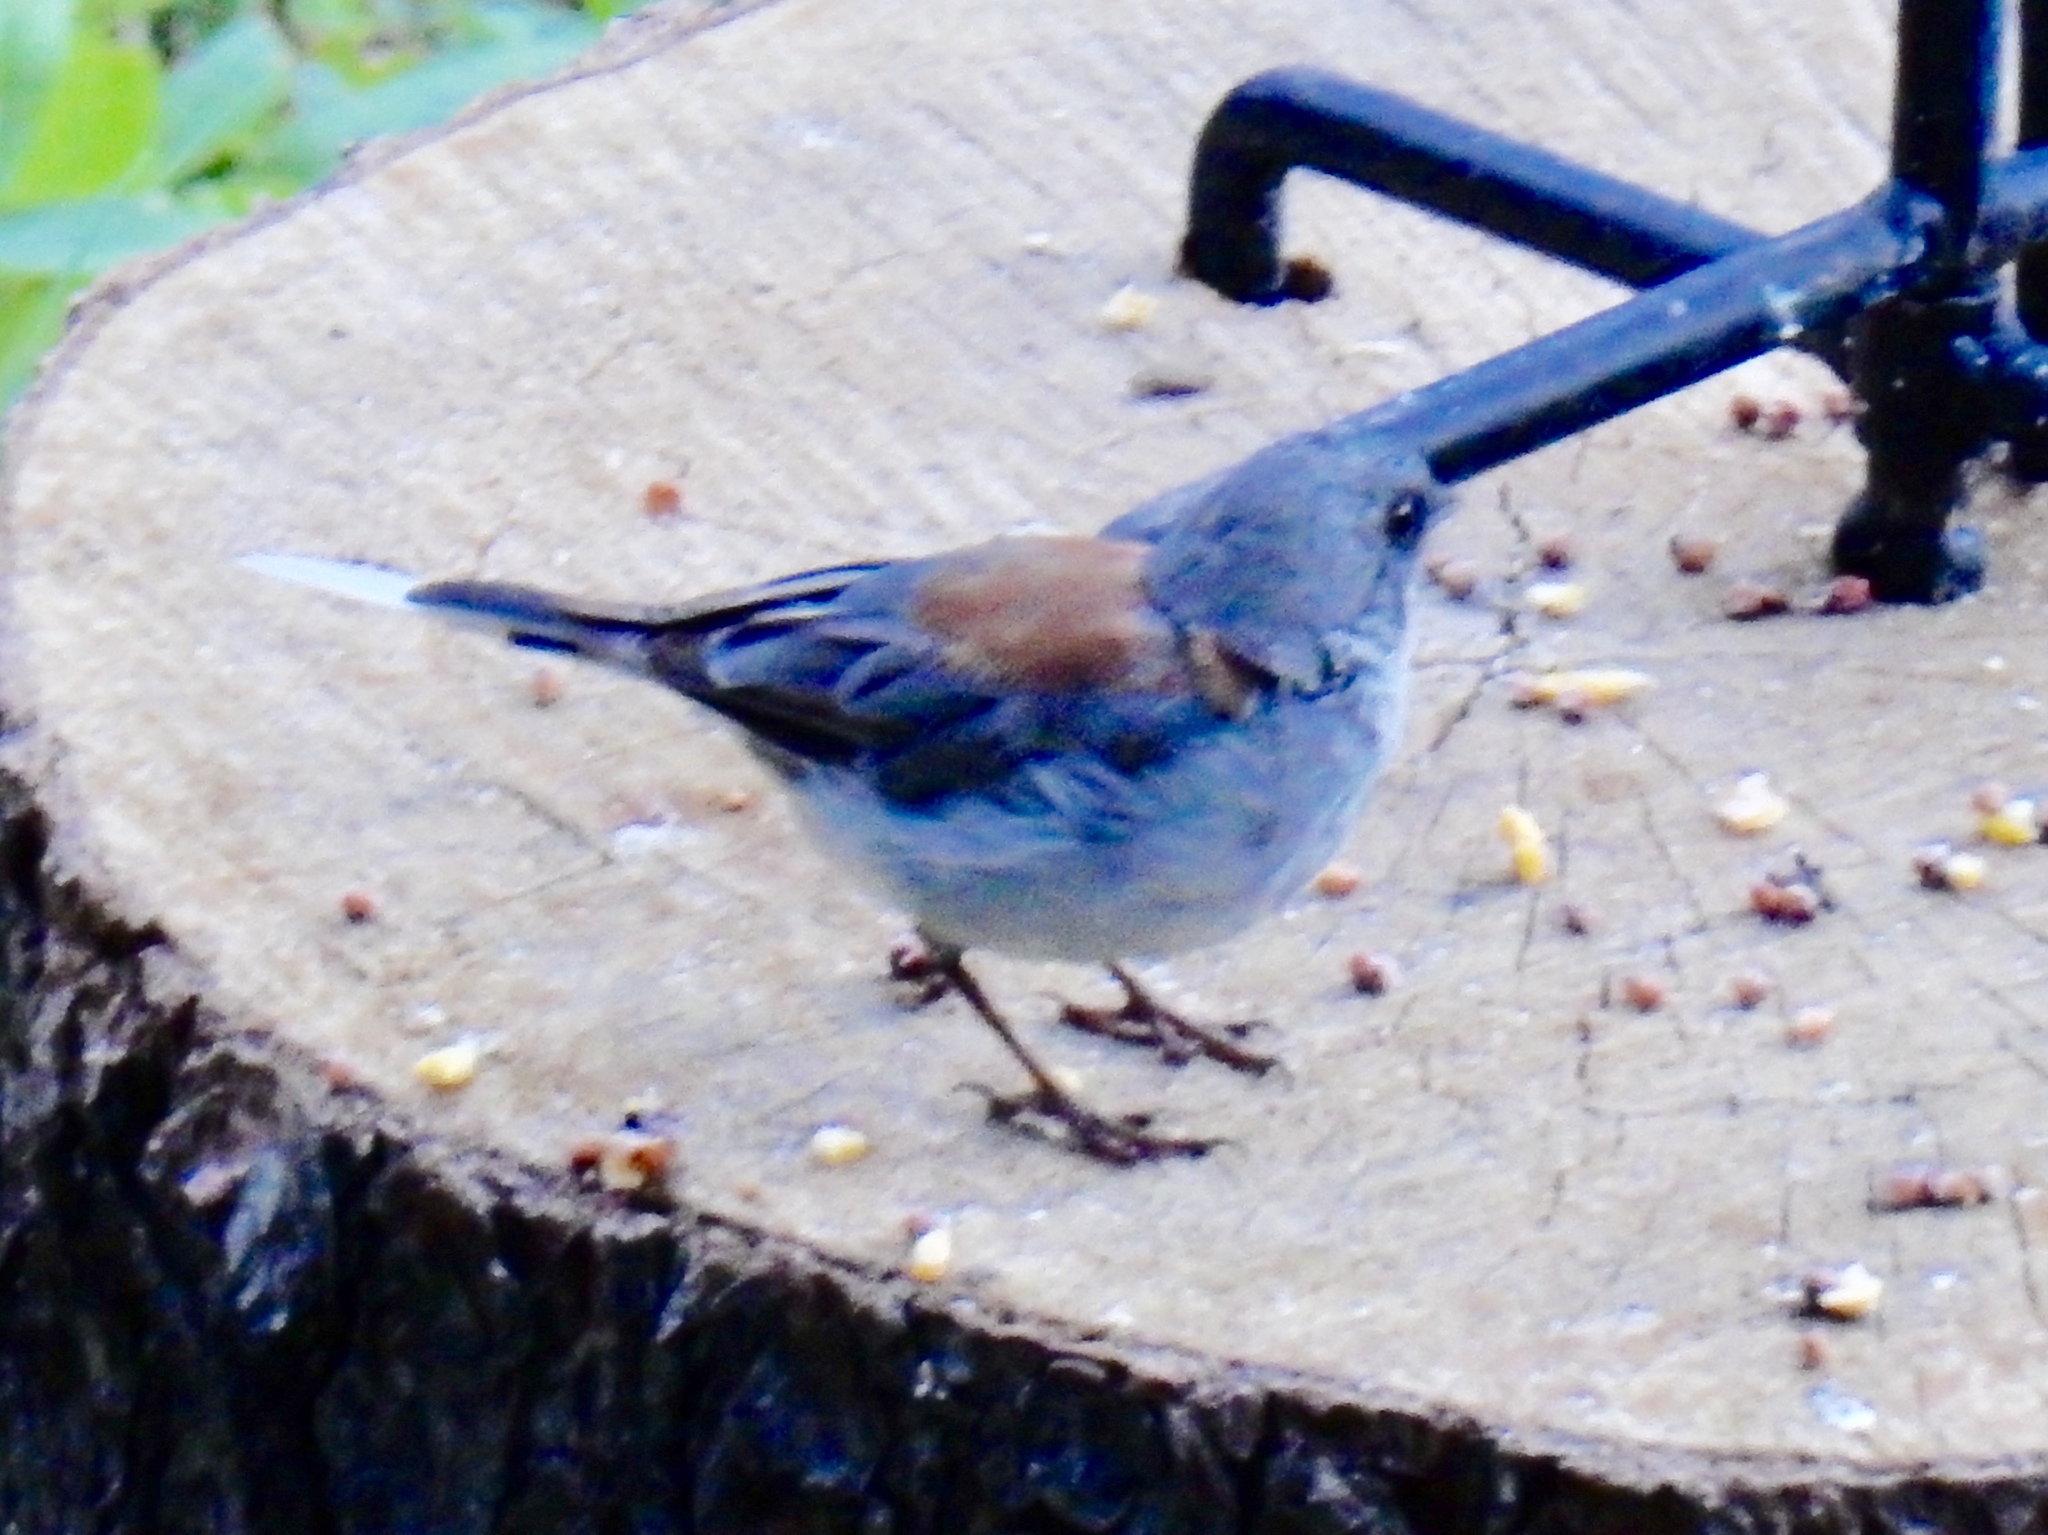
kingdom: Animalia
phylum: Chordata
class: Aves
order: Passeriformes
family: Passerellidae
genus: Junco
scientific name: Junco hyemalis
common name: Dark-eyed junco
